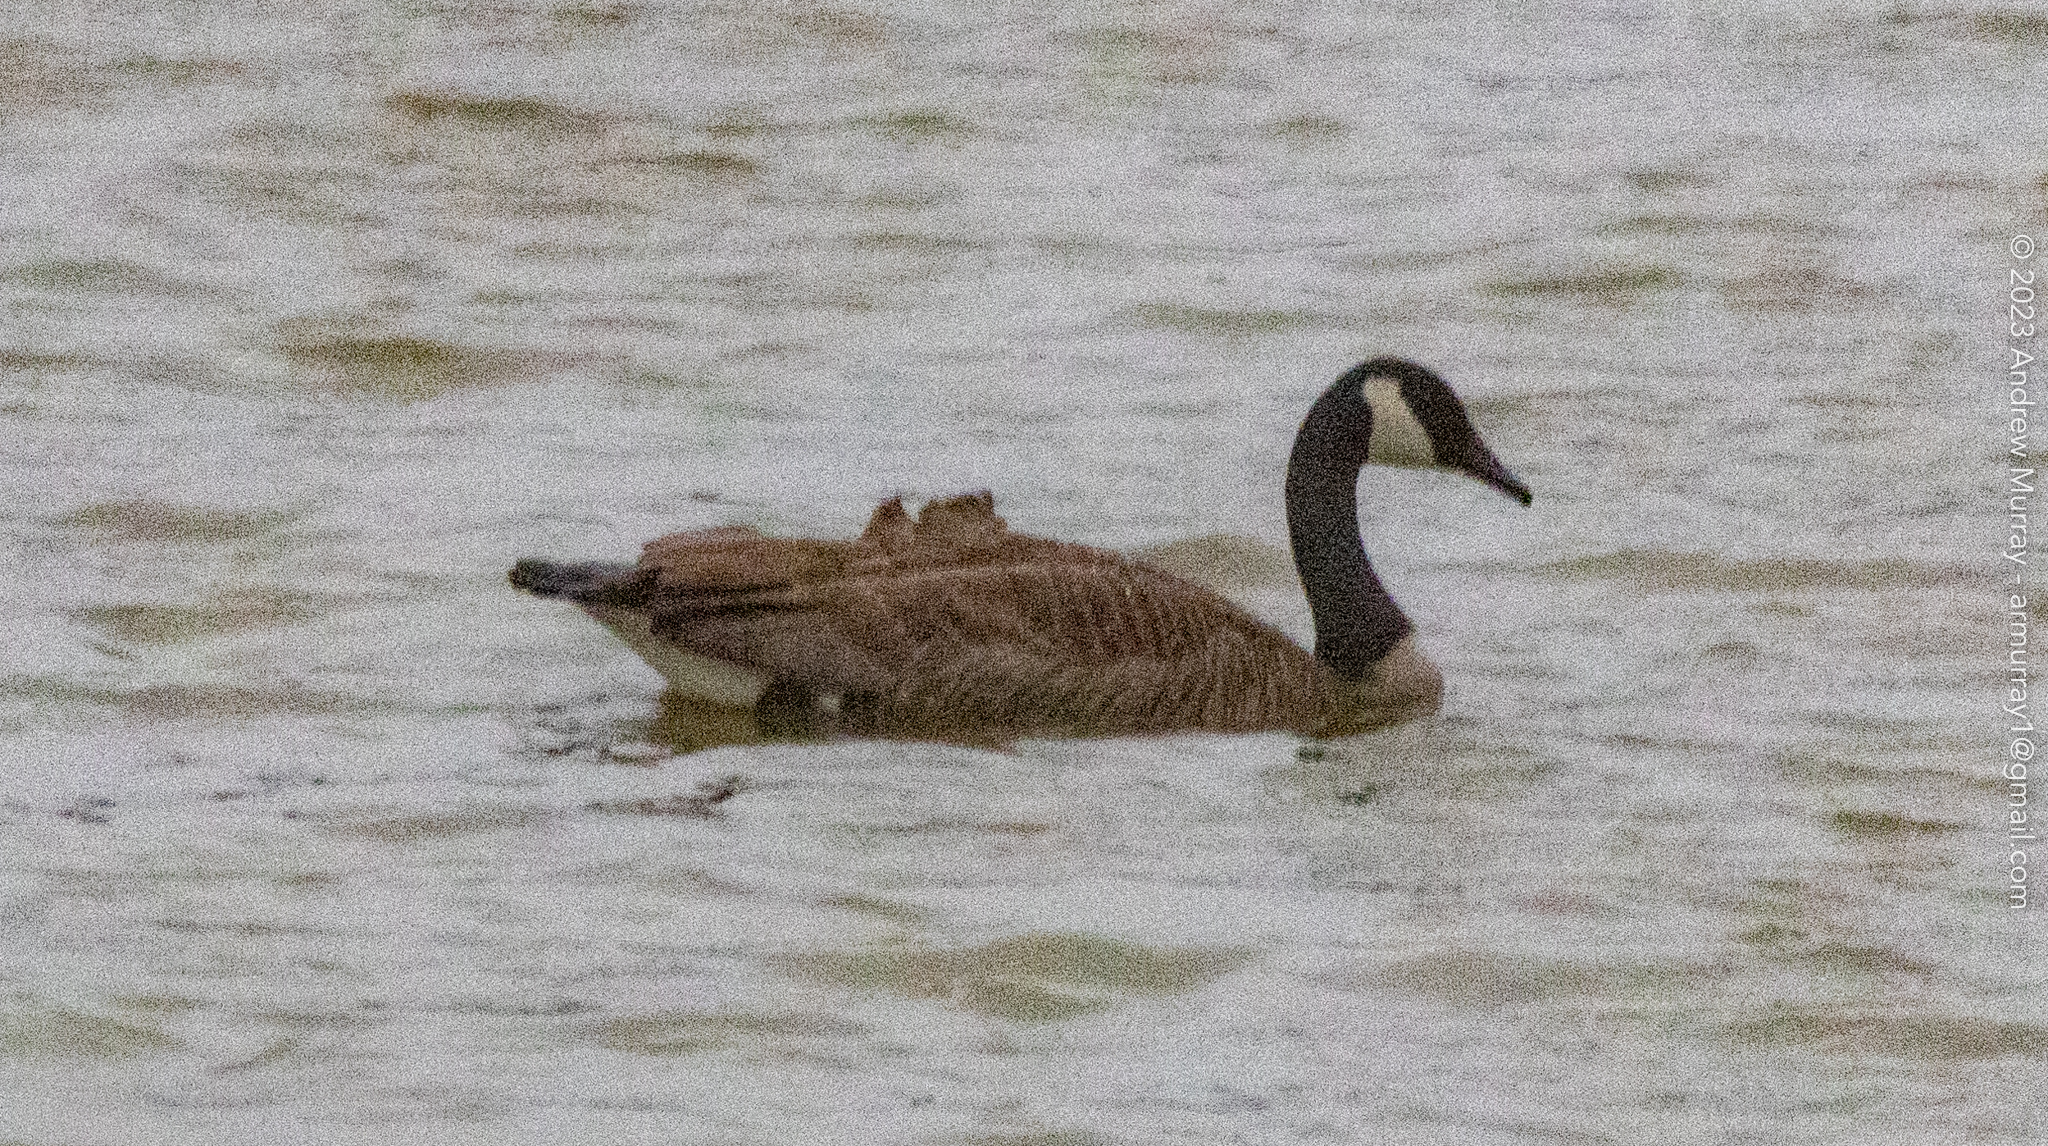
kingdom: Animalia
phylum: Chordata
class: Aves
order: Anseriformes
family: Anatidae
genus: Branta
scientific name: Branta canadensis
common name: Canada goose
